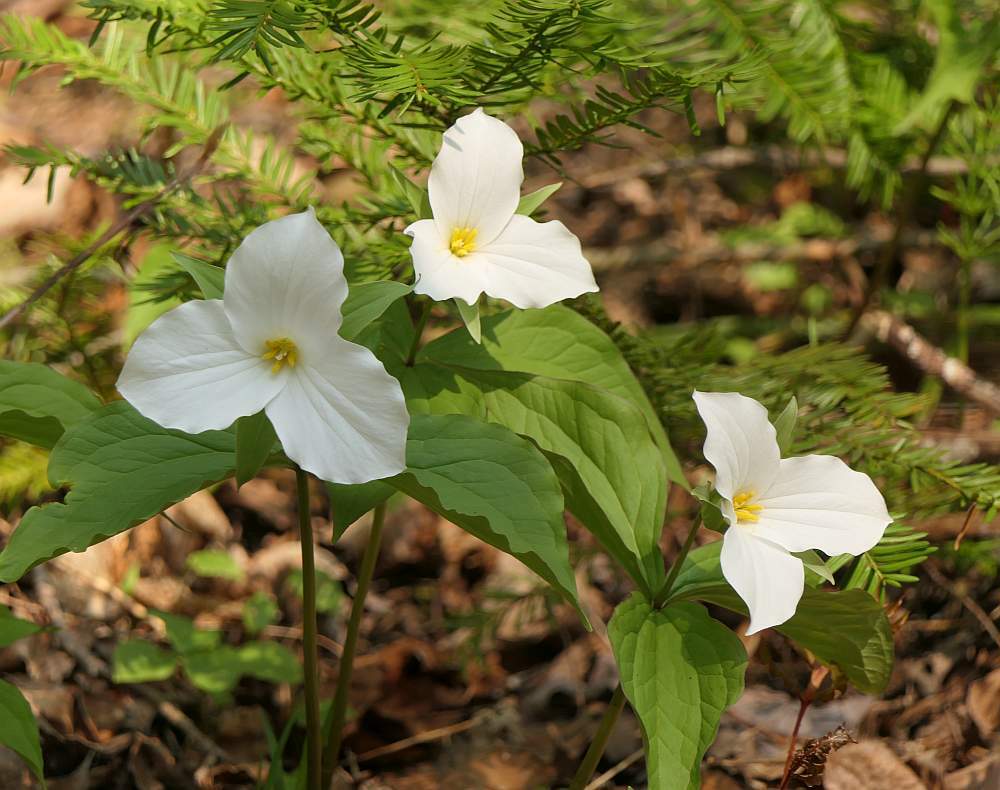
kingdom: Plantae
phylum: Tracheophyta
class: Liliopsida
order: Liliales
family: Melanthiaceae
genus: Trillium
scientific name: Trillium grandiflorum
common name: Great white trillium
